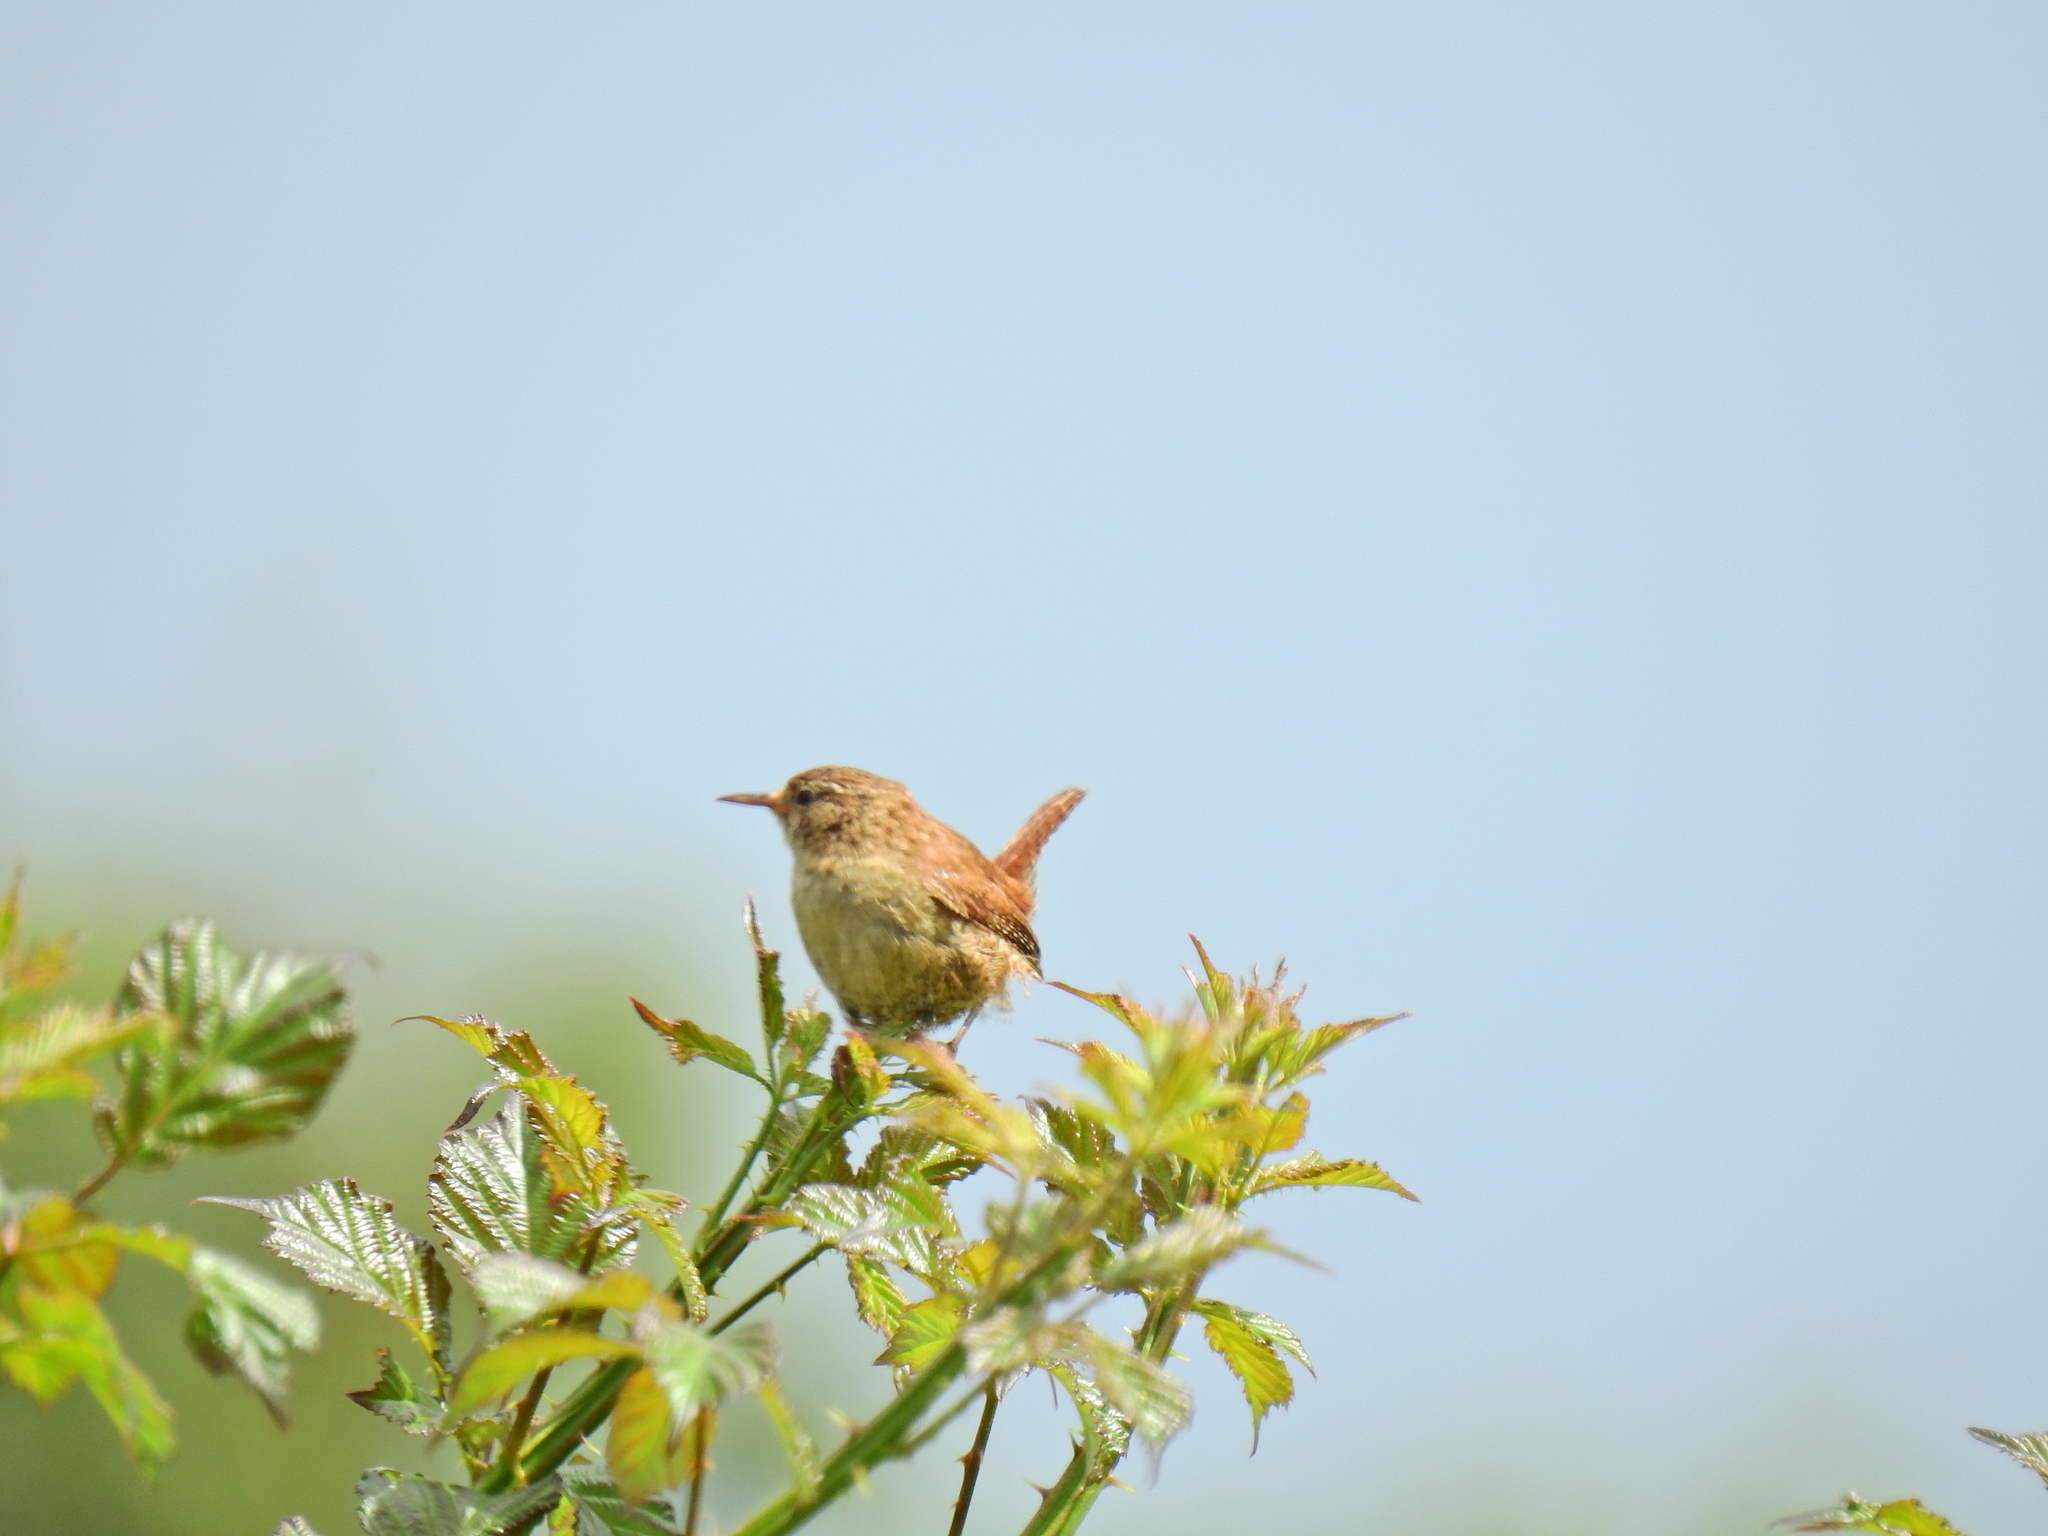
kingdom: Animalia
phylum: Chordata
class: Aves
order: Passeriformes
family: Troglodytidae
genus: Troglodytes
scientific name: Troglodytes troglodytes
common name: Eurasian wren
